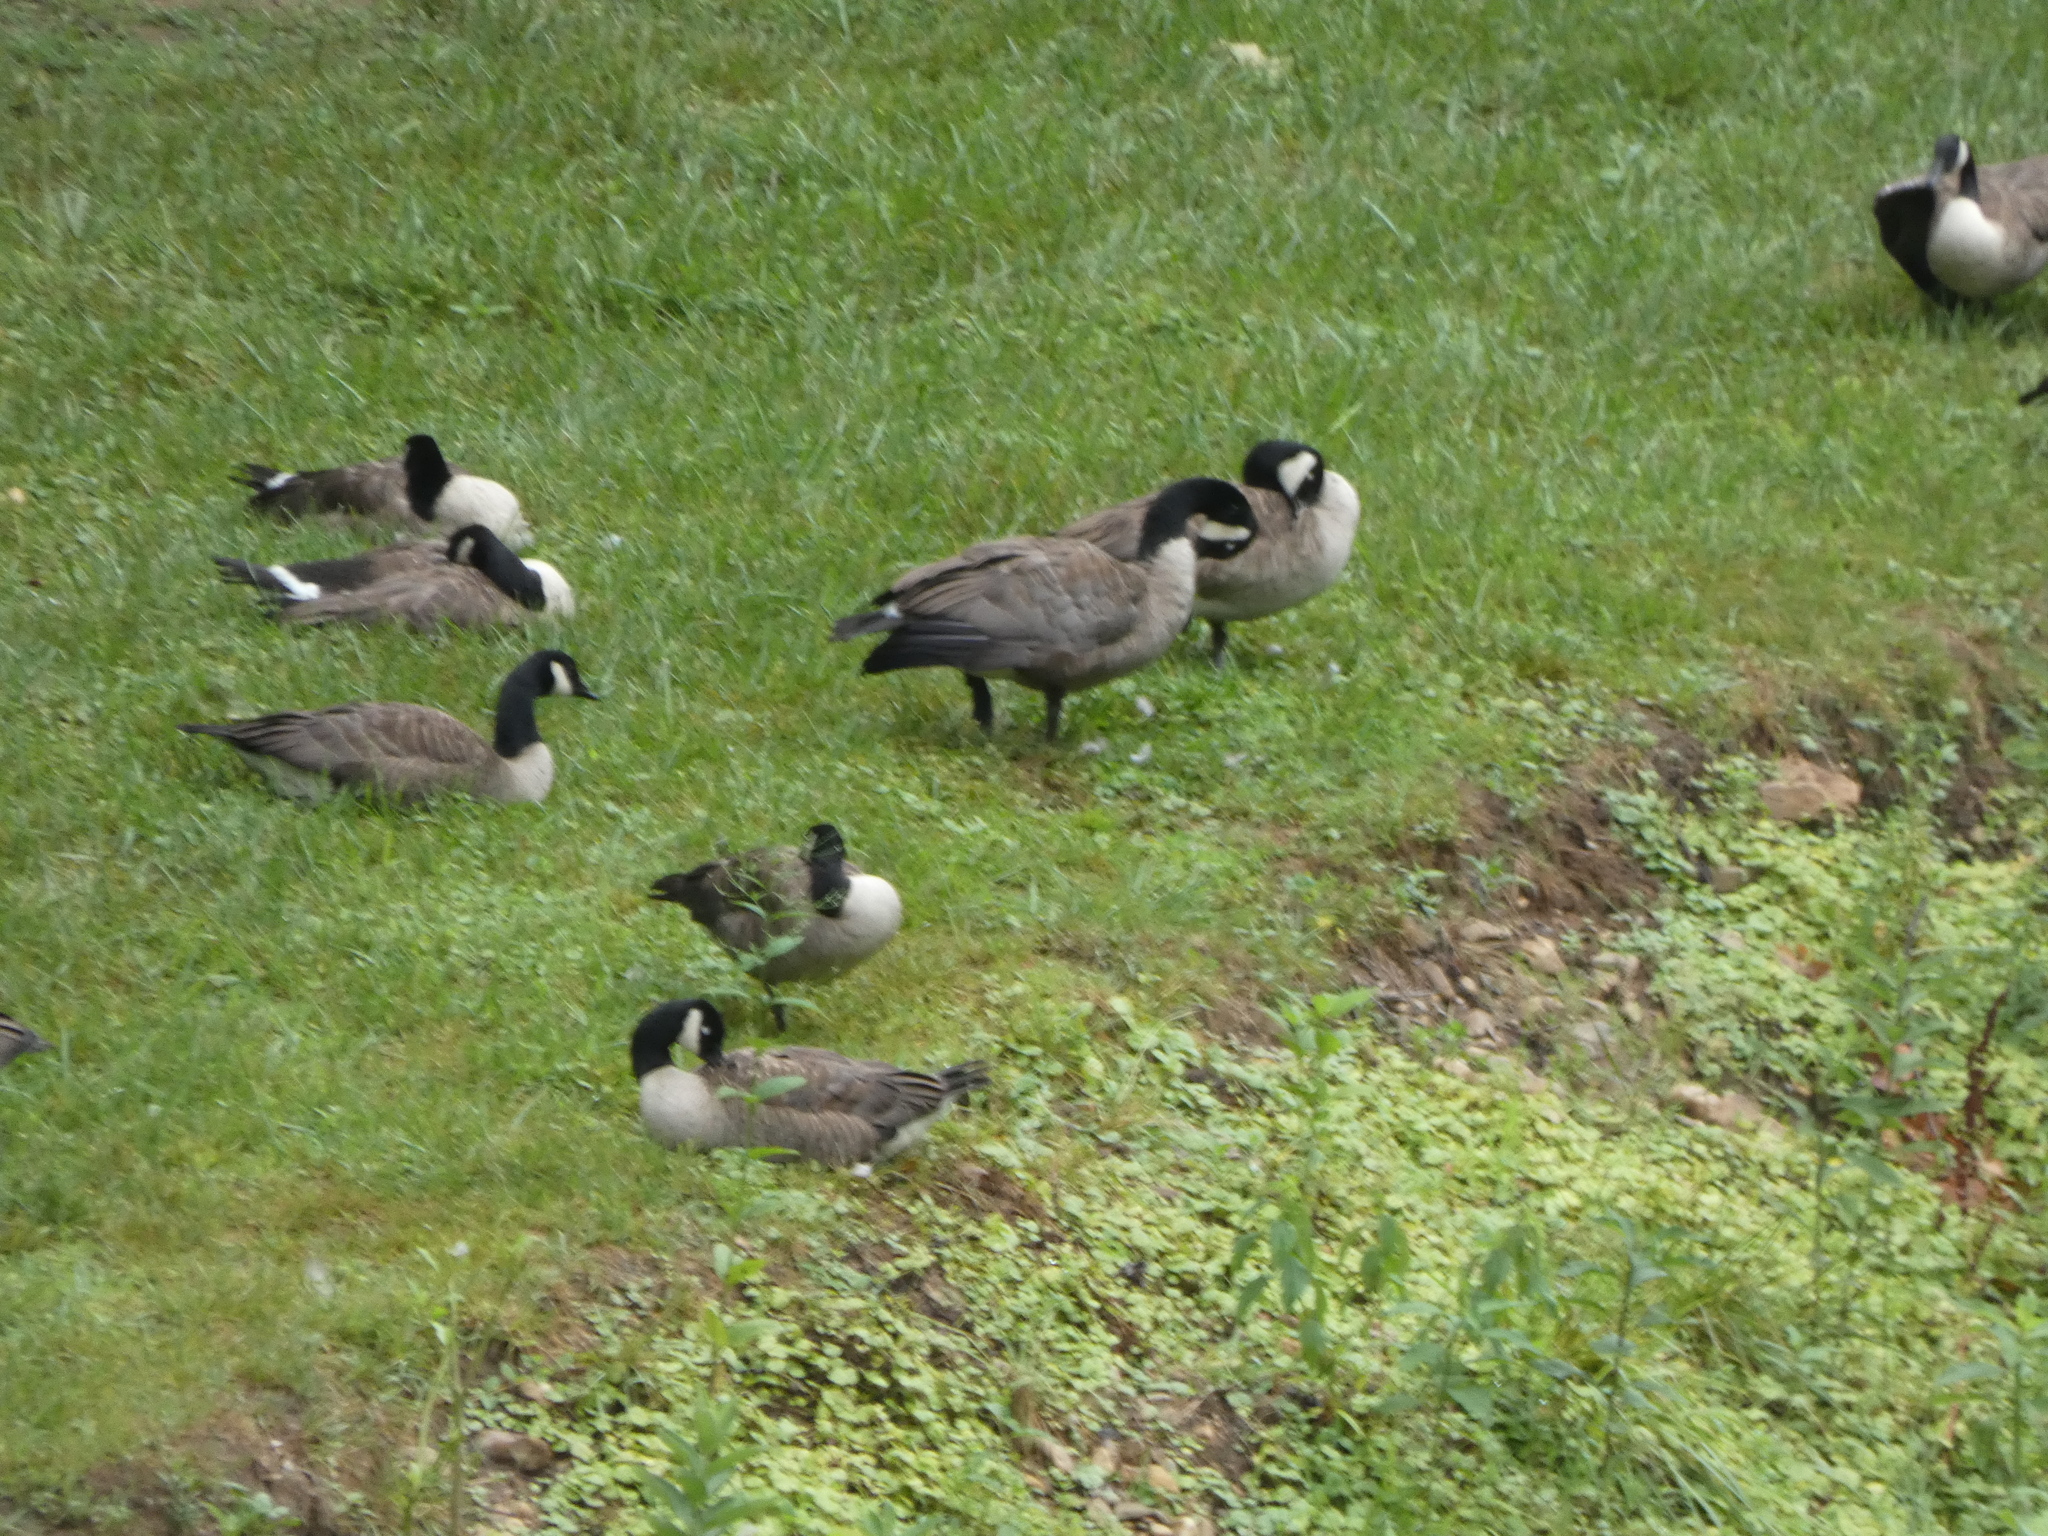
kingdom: Animalia
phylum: Chordata
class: Aves
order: Anseriformes
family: Anatidae
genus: Branta
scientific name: Branta canadensis
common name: Canada goose
